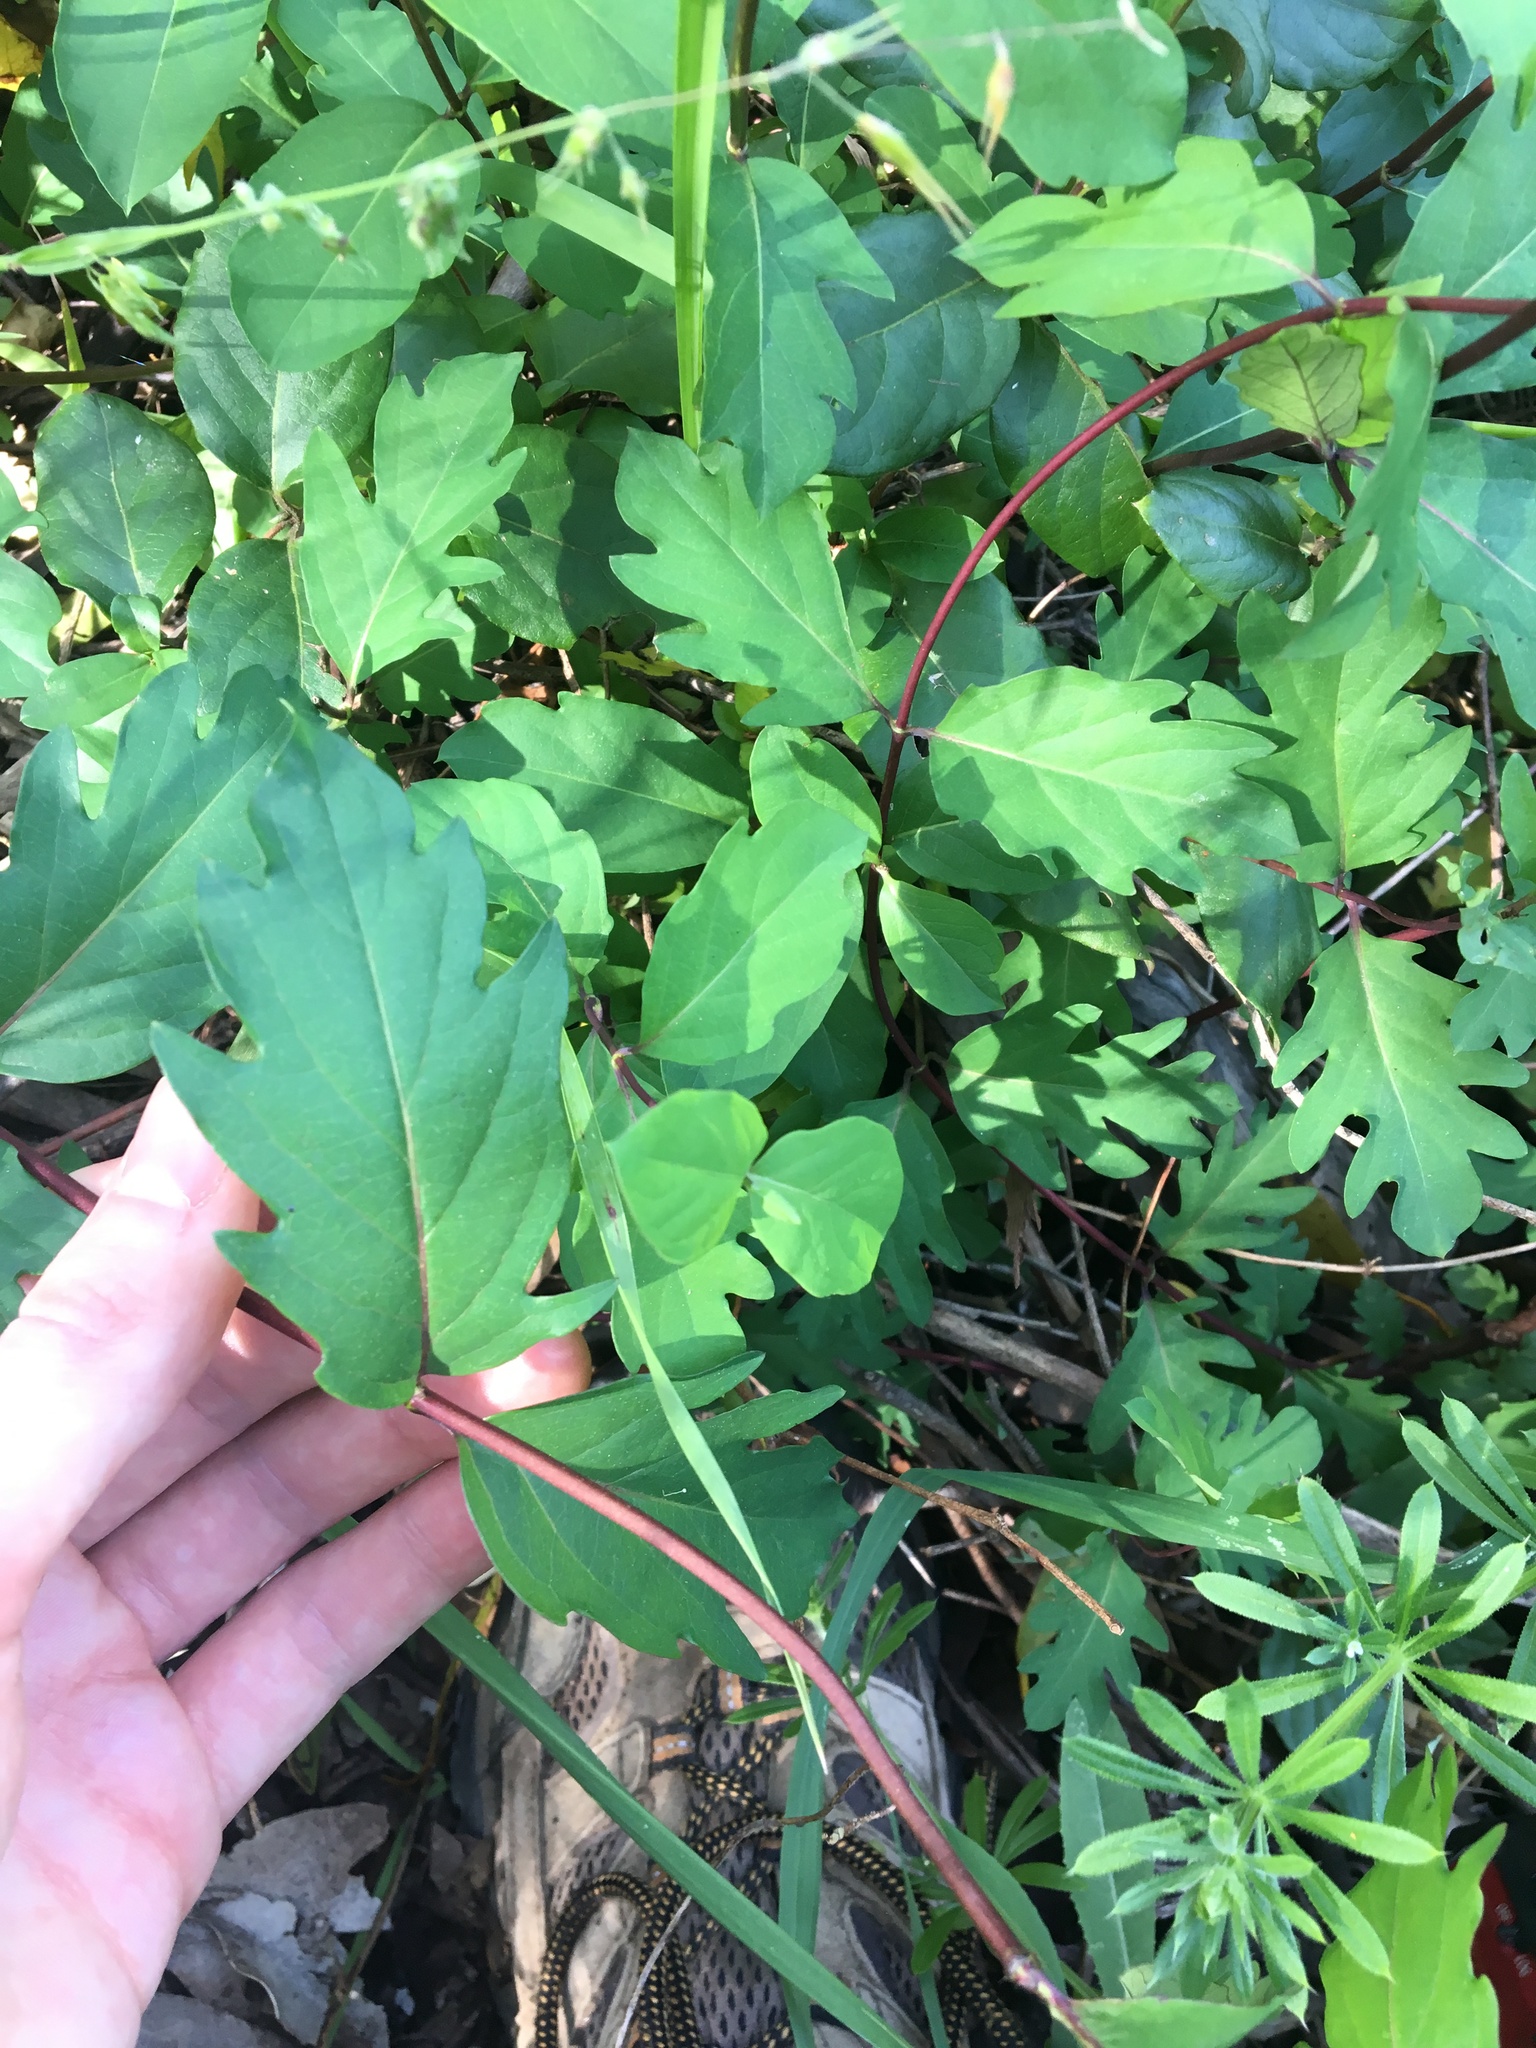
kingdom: Plantae
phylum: Tracheophyta
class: Magnoliopsida
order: Dipsacales
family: Caprifoliaceae
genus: Lonicera
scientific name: Lonicera japonica
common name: Japanese honeysuckle
